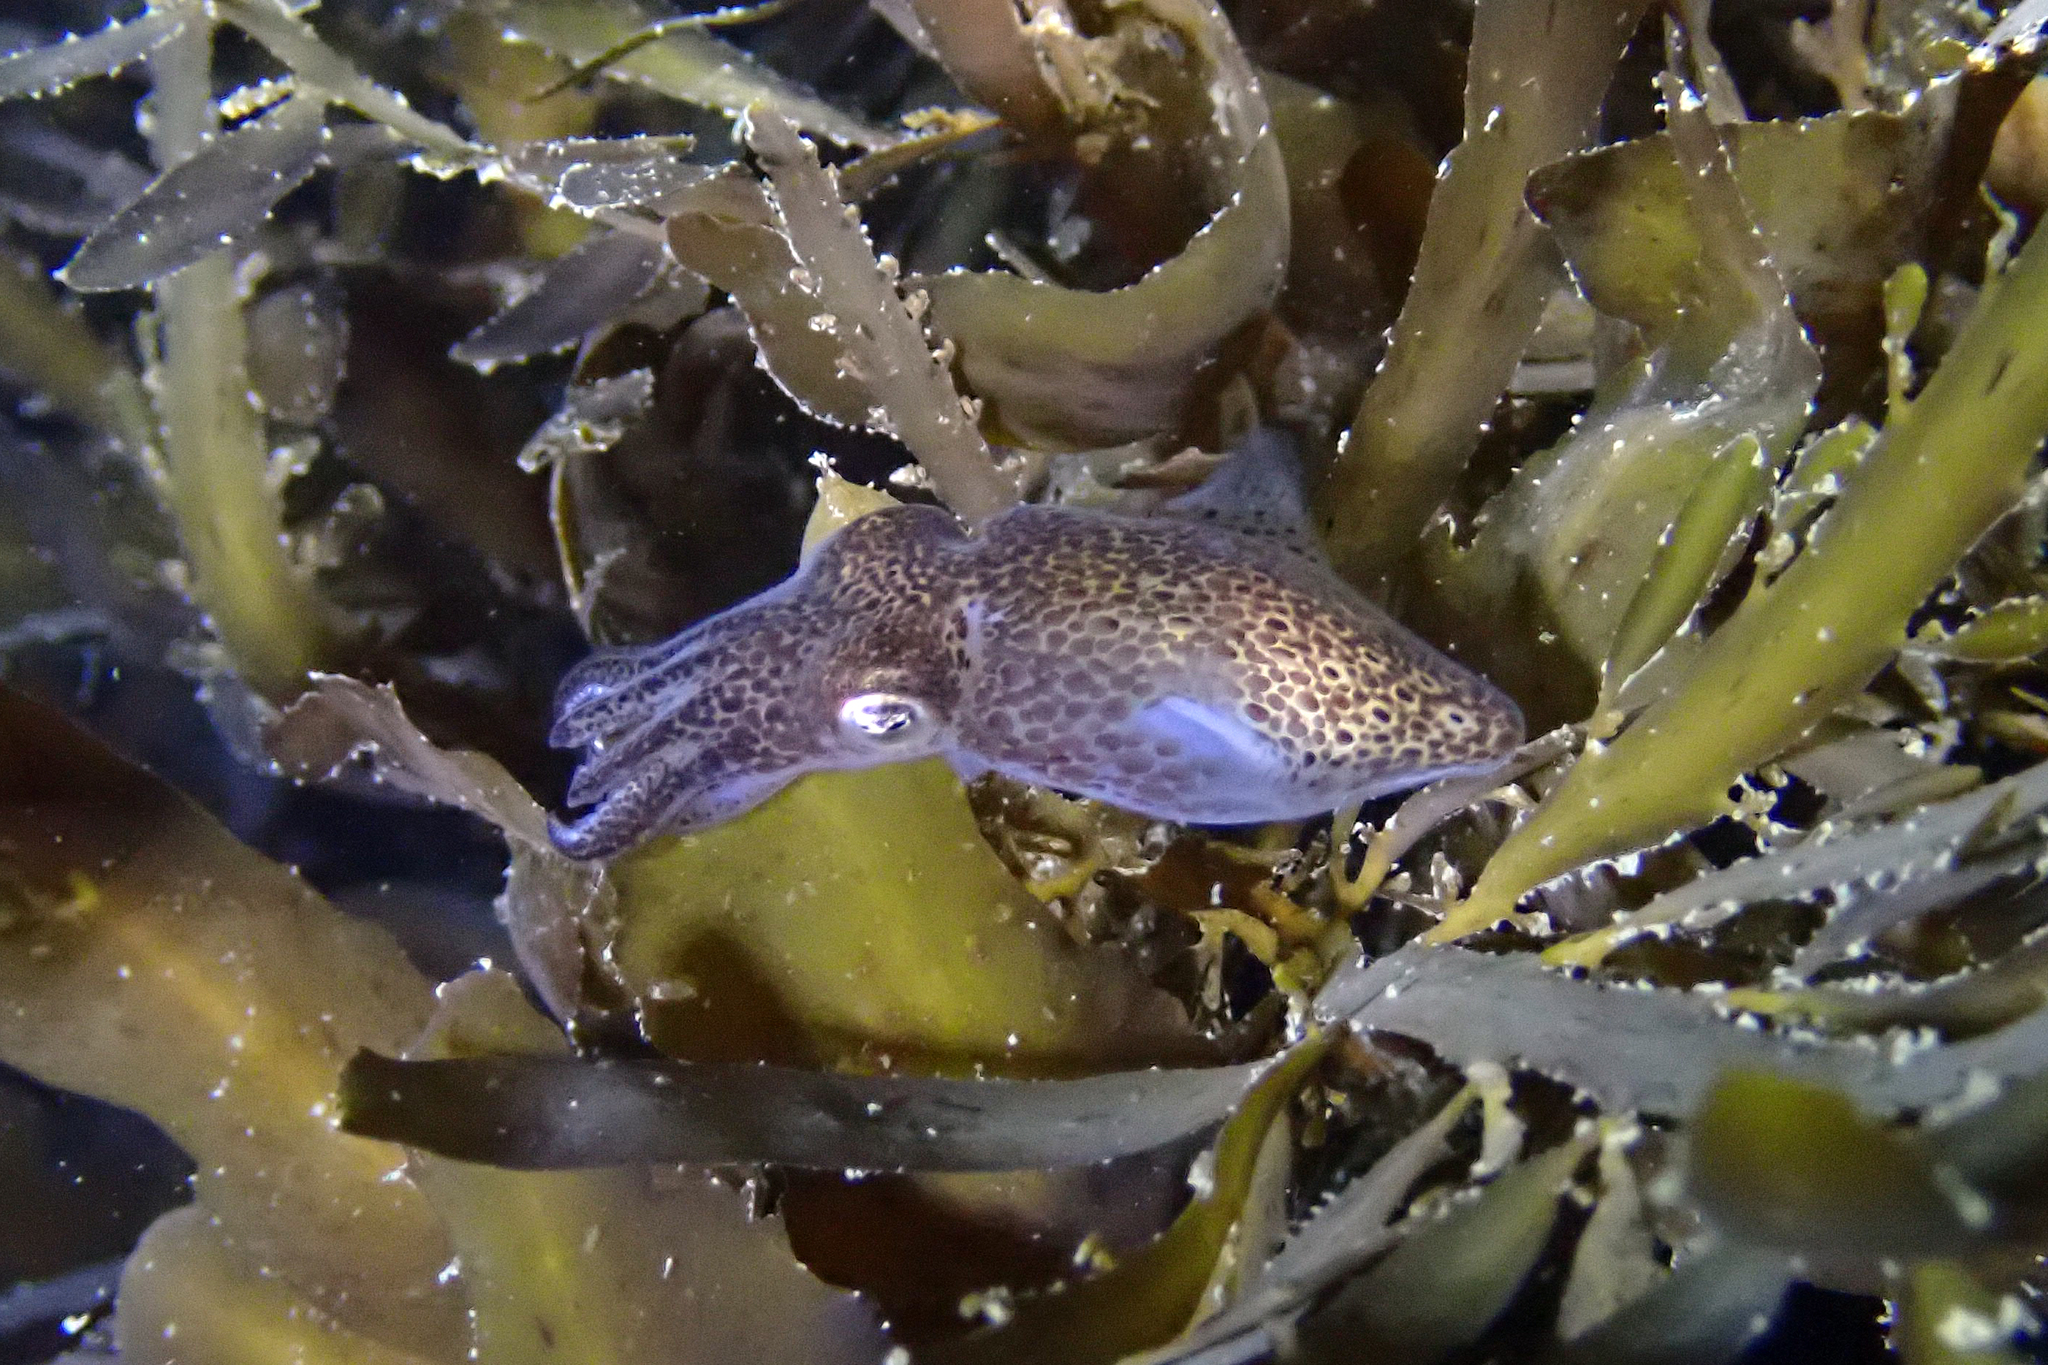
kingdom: Animalia
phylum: Mollusca
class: Cephalopoda
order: Sepiida
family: Sepiadariidae
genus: Sepioloidea
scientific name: Sepioloidea pacifica
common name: Pacific bobtail squid
